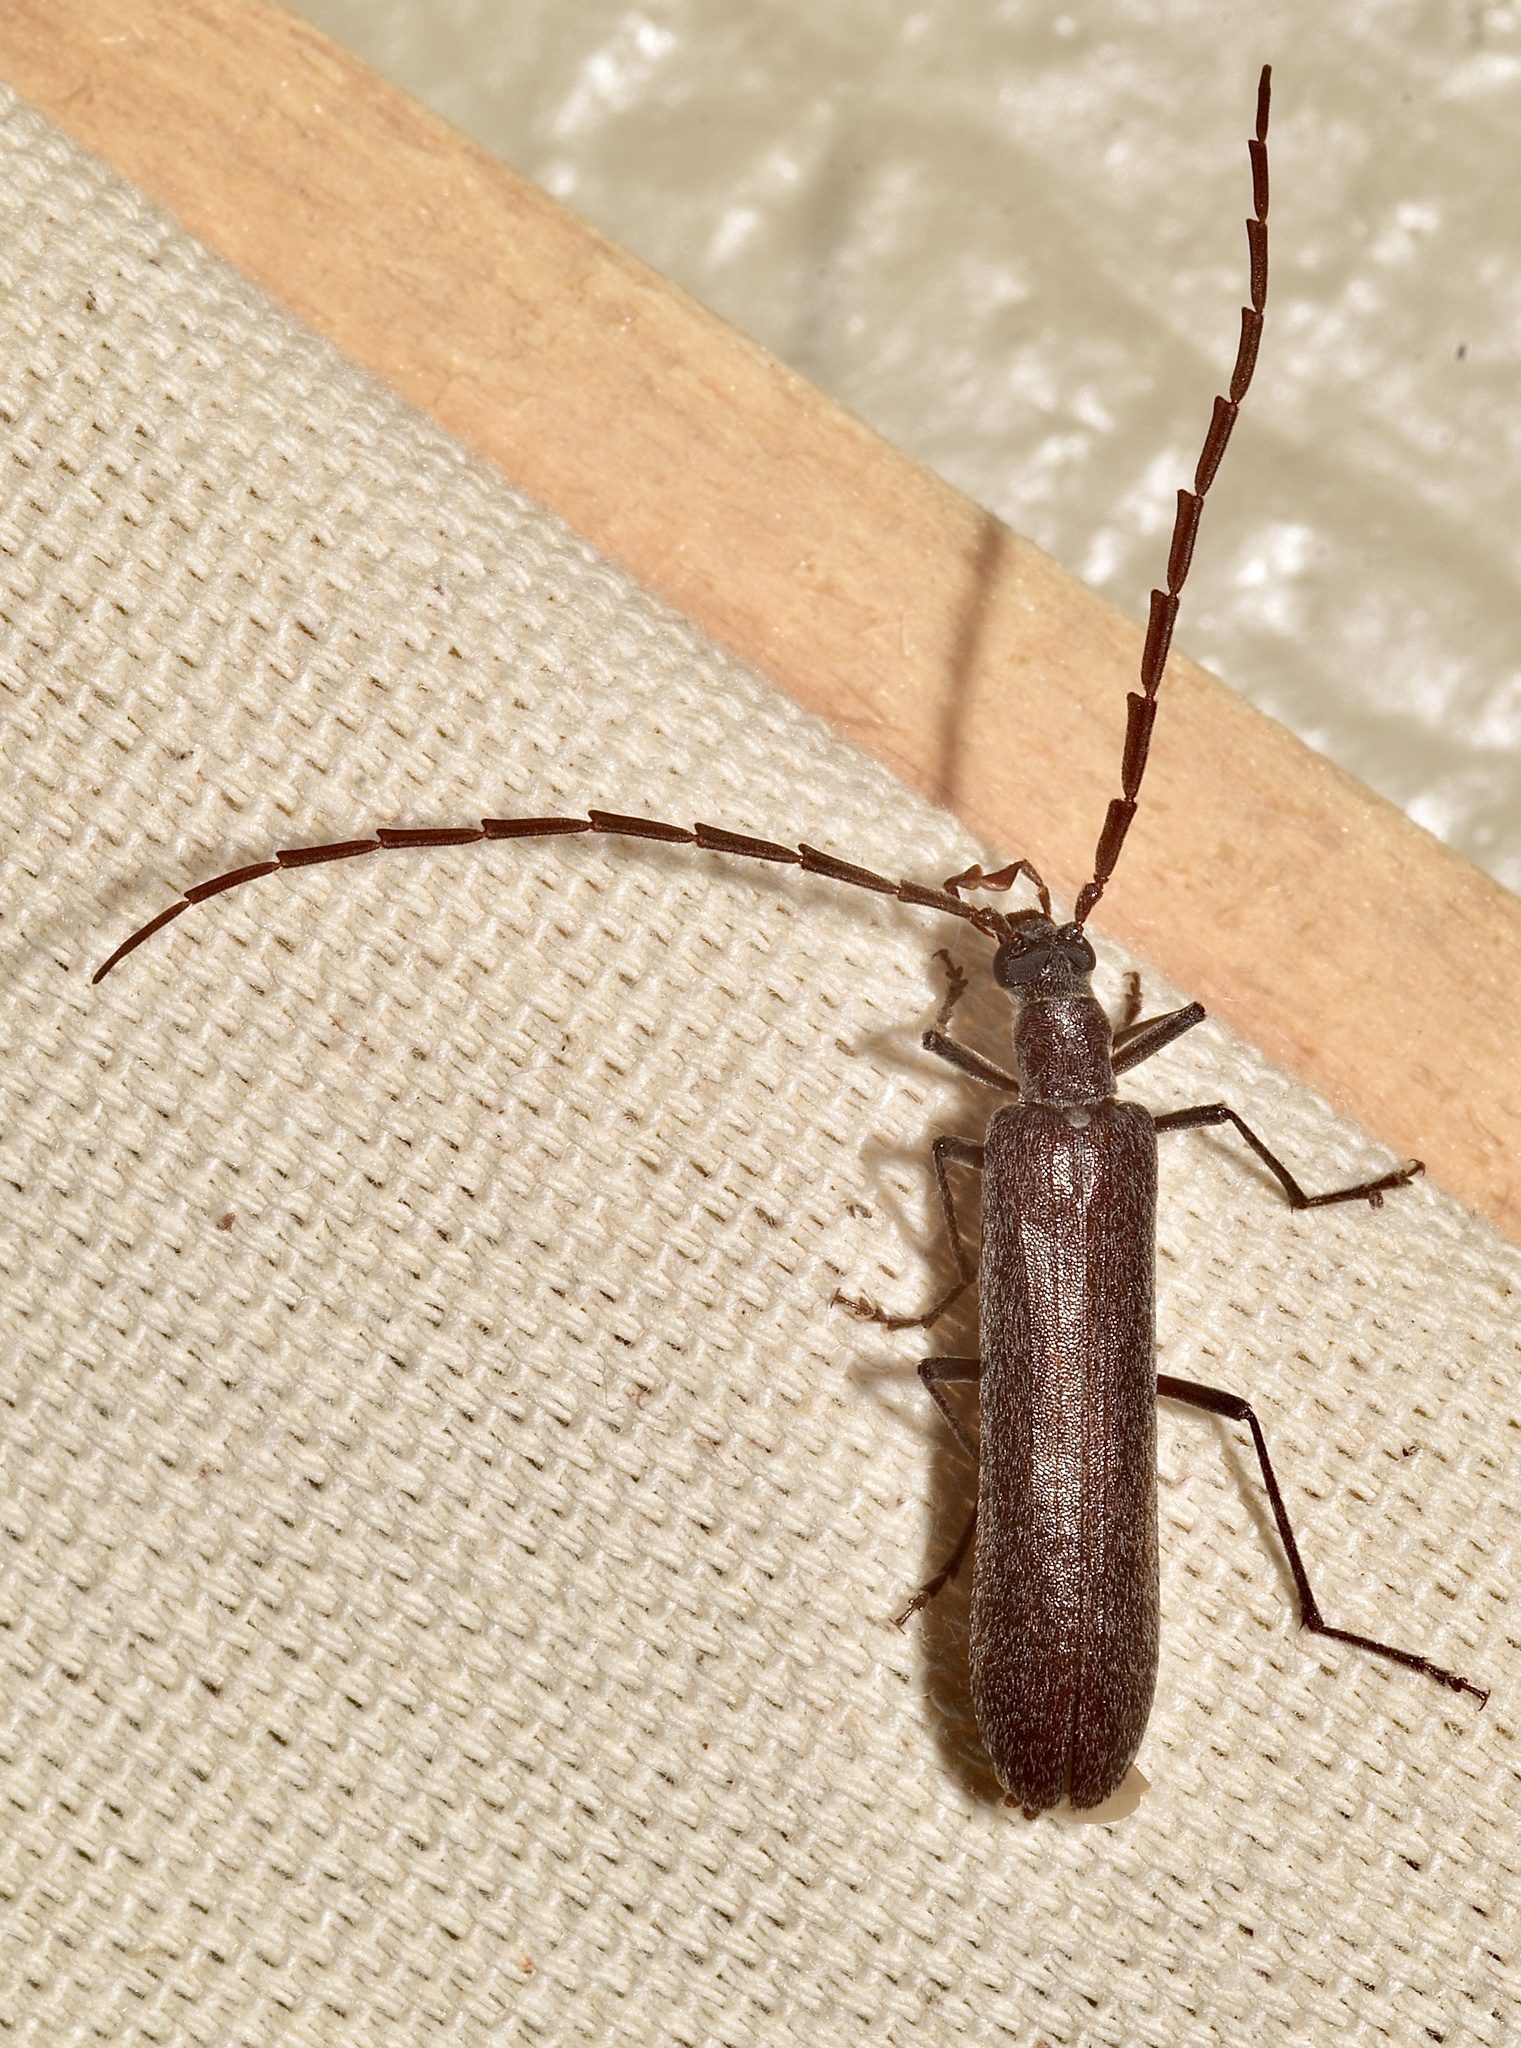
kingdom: Animalia
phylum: Arthropoda
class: Insecta
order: Coleoptera
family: Oedemeridae
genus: Calopus
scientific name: Calopus angustus
